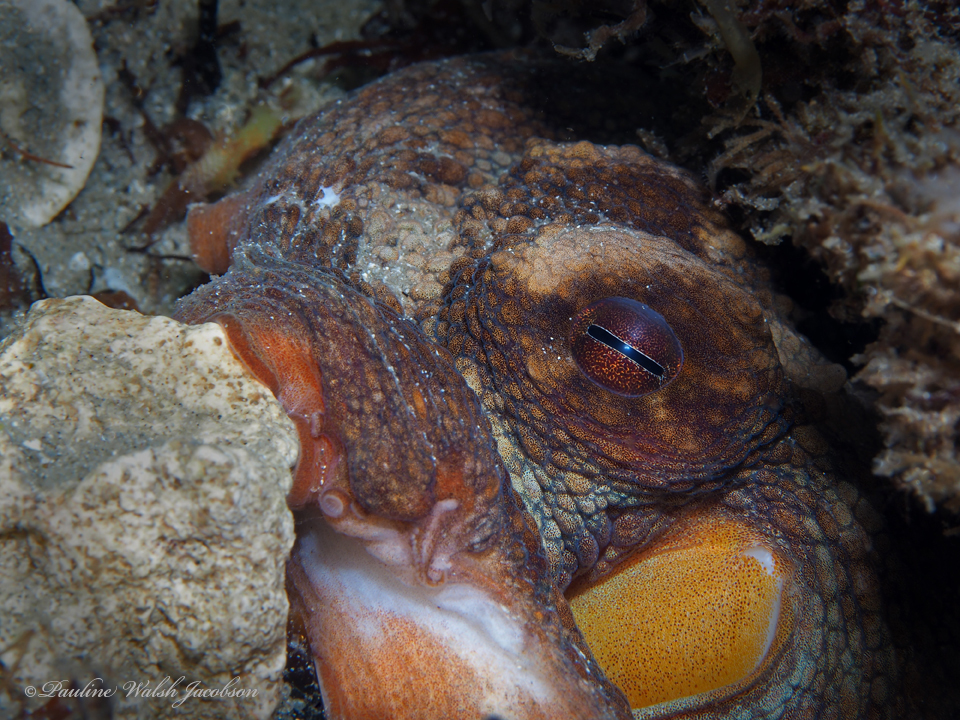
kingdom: Animalia
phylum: Mollusca
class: Cephalopoda
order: Octopoda
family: Octopodidae
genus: Octopus
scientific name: Octopus americanus
